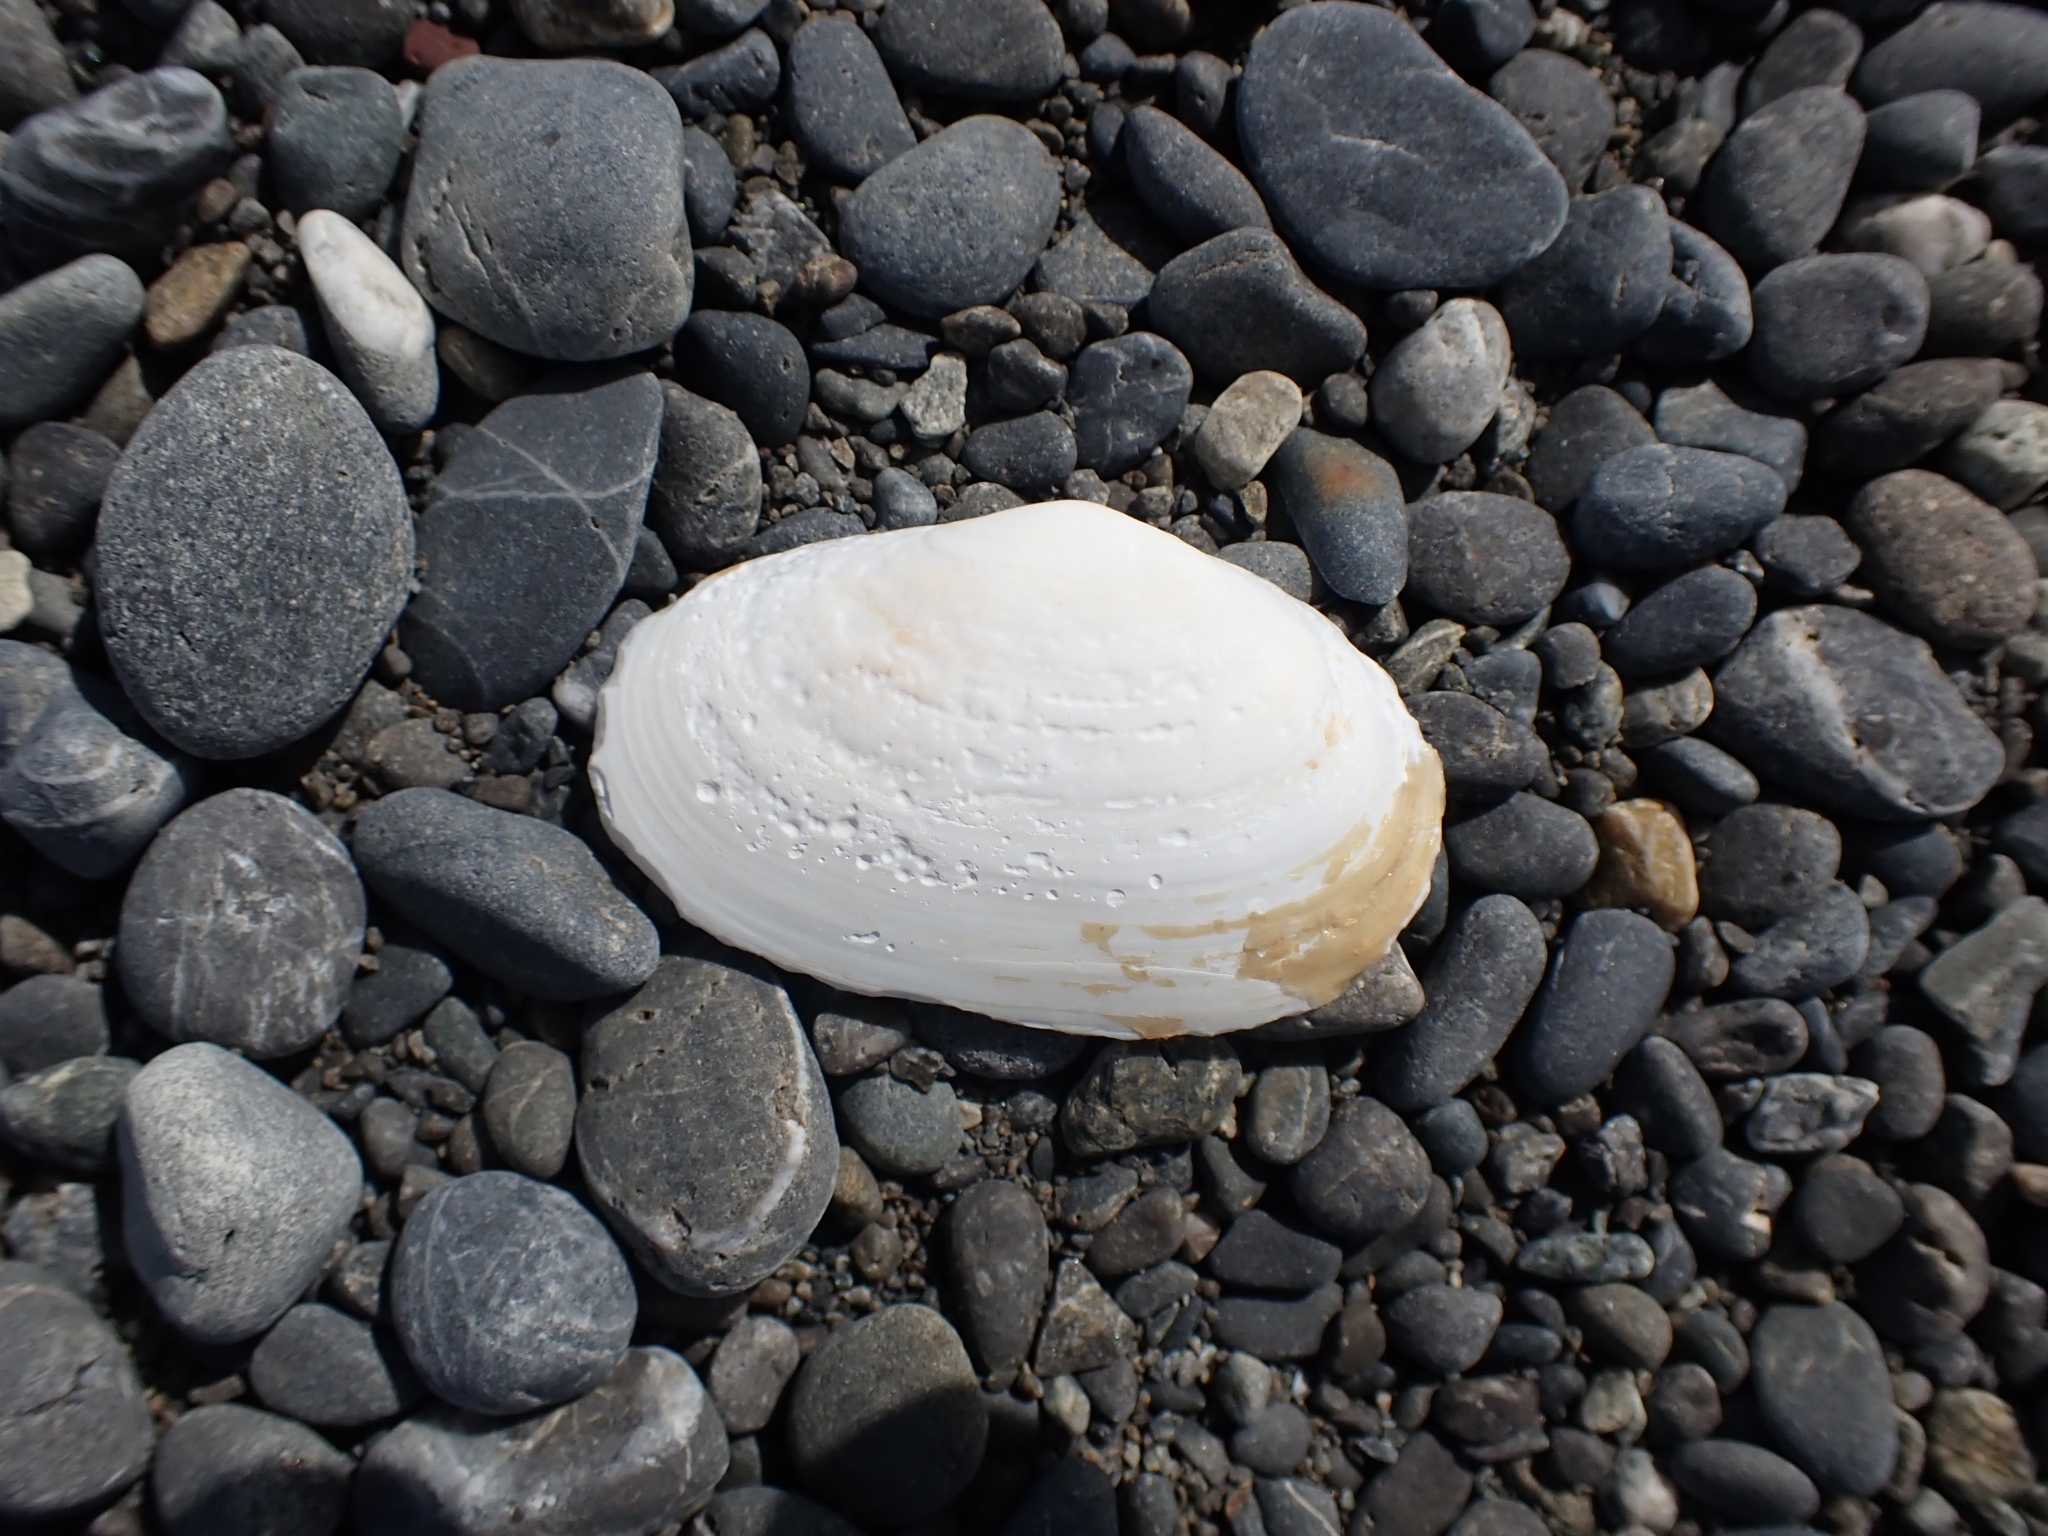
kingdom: Animalia
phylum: Mollusca
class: Bivalvia
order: Venerida
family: Mesodesmatidae
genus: Paphies
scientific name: Paphies australis
